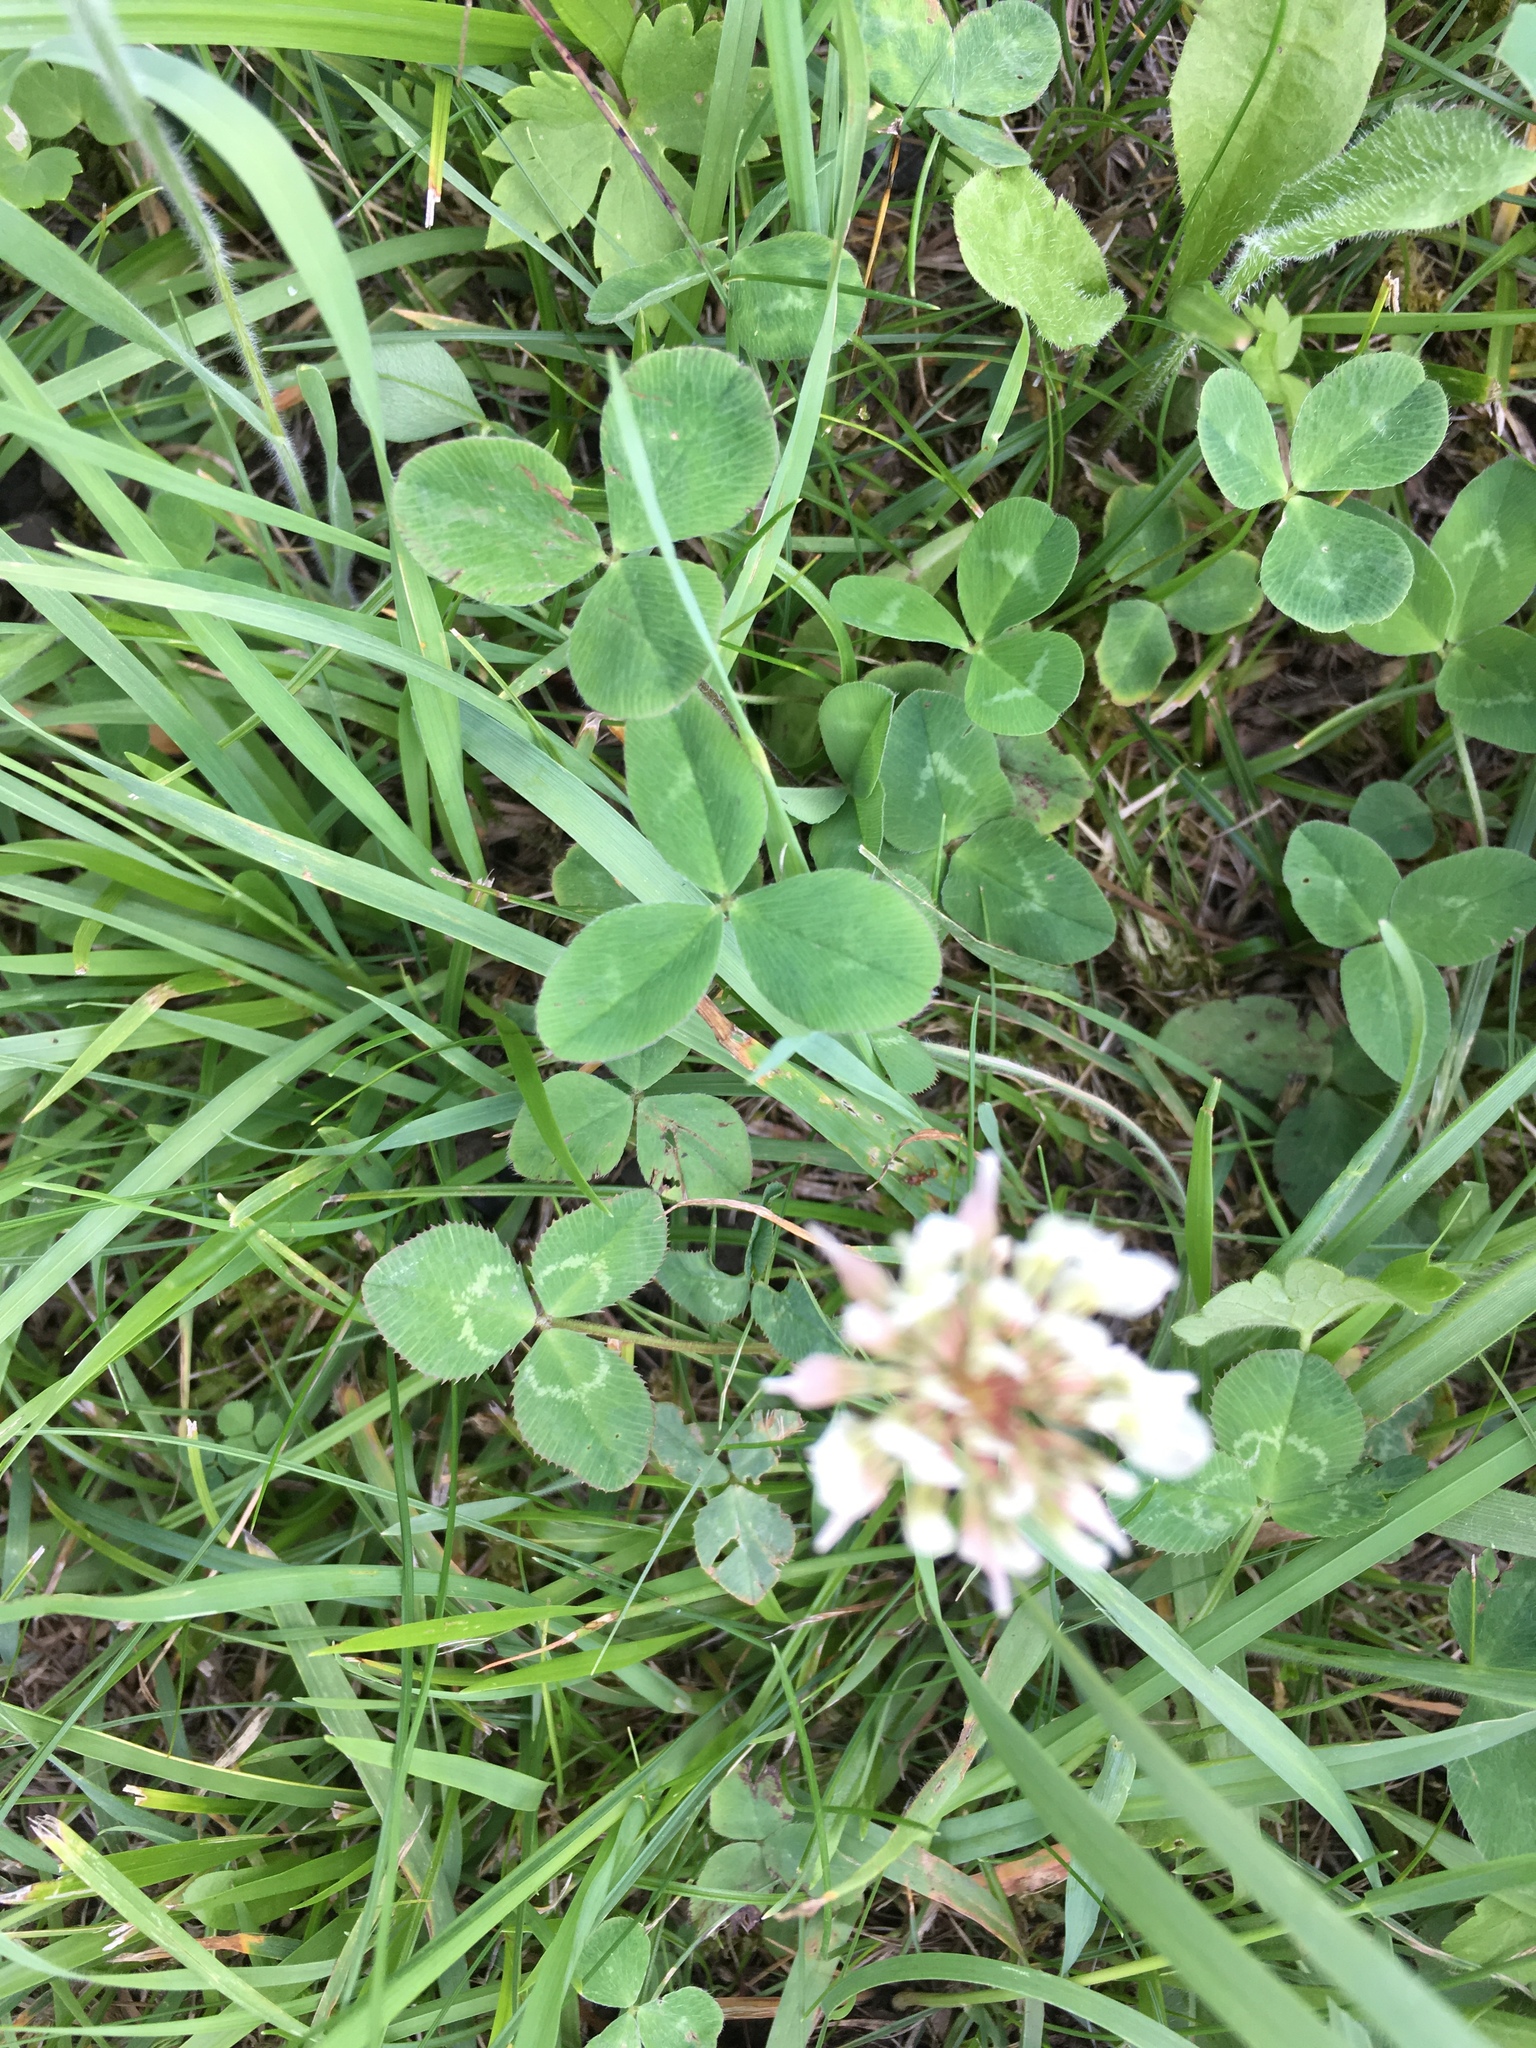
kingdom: Plantae
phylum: Tracheophyta
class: Magnoliopsida
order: Fabales
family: Fabaceae
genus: Trifolium
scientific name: Trifolium repens
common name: White clover
